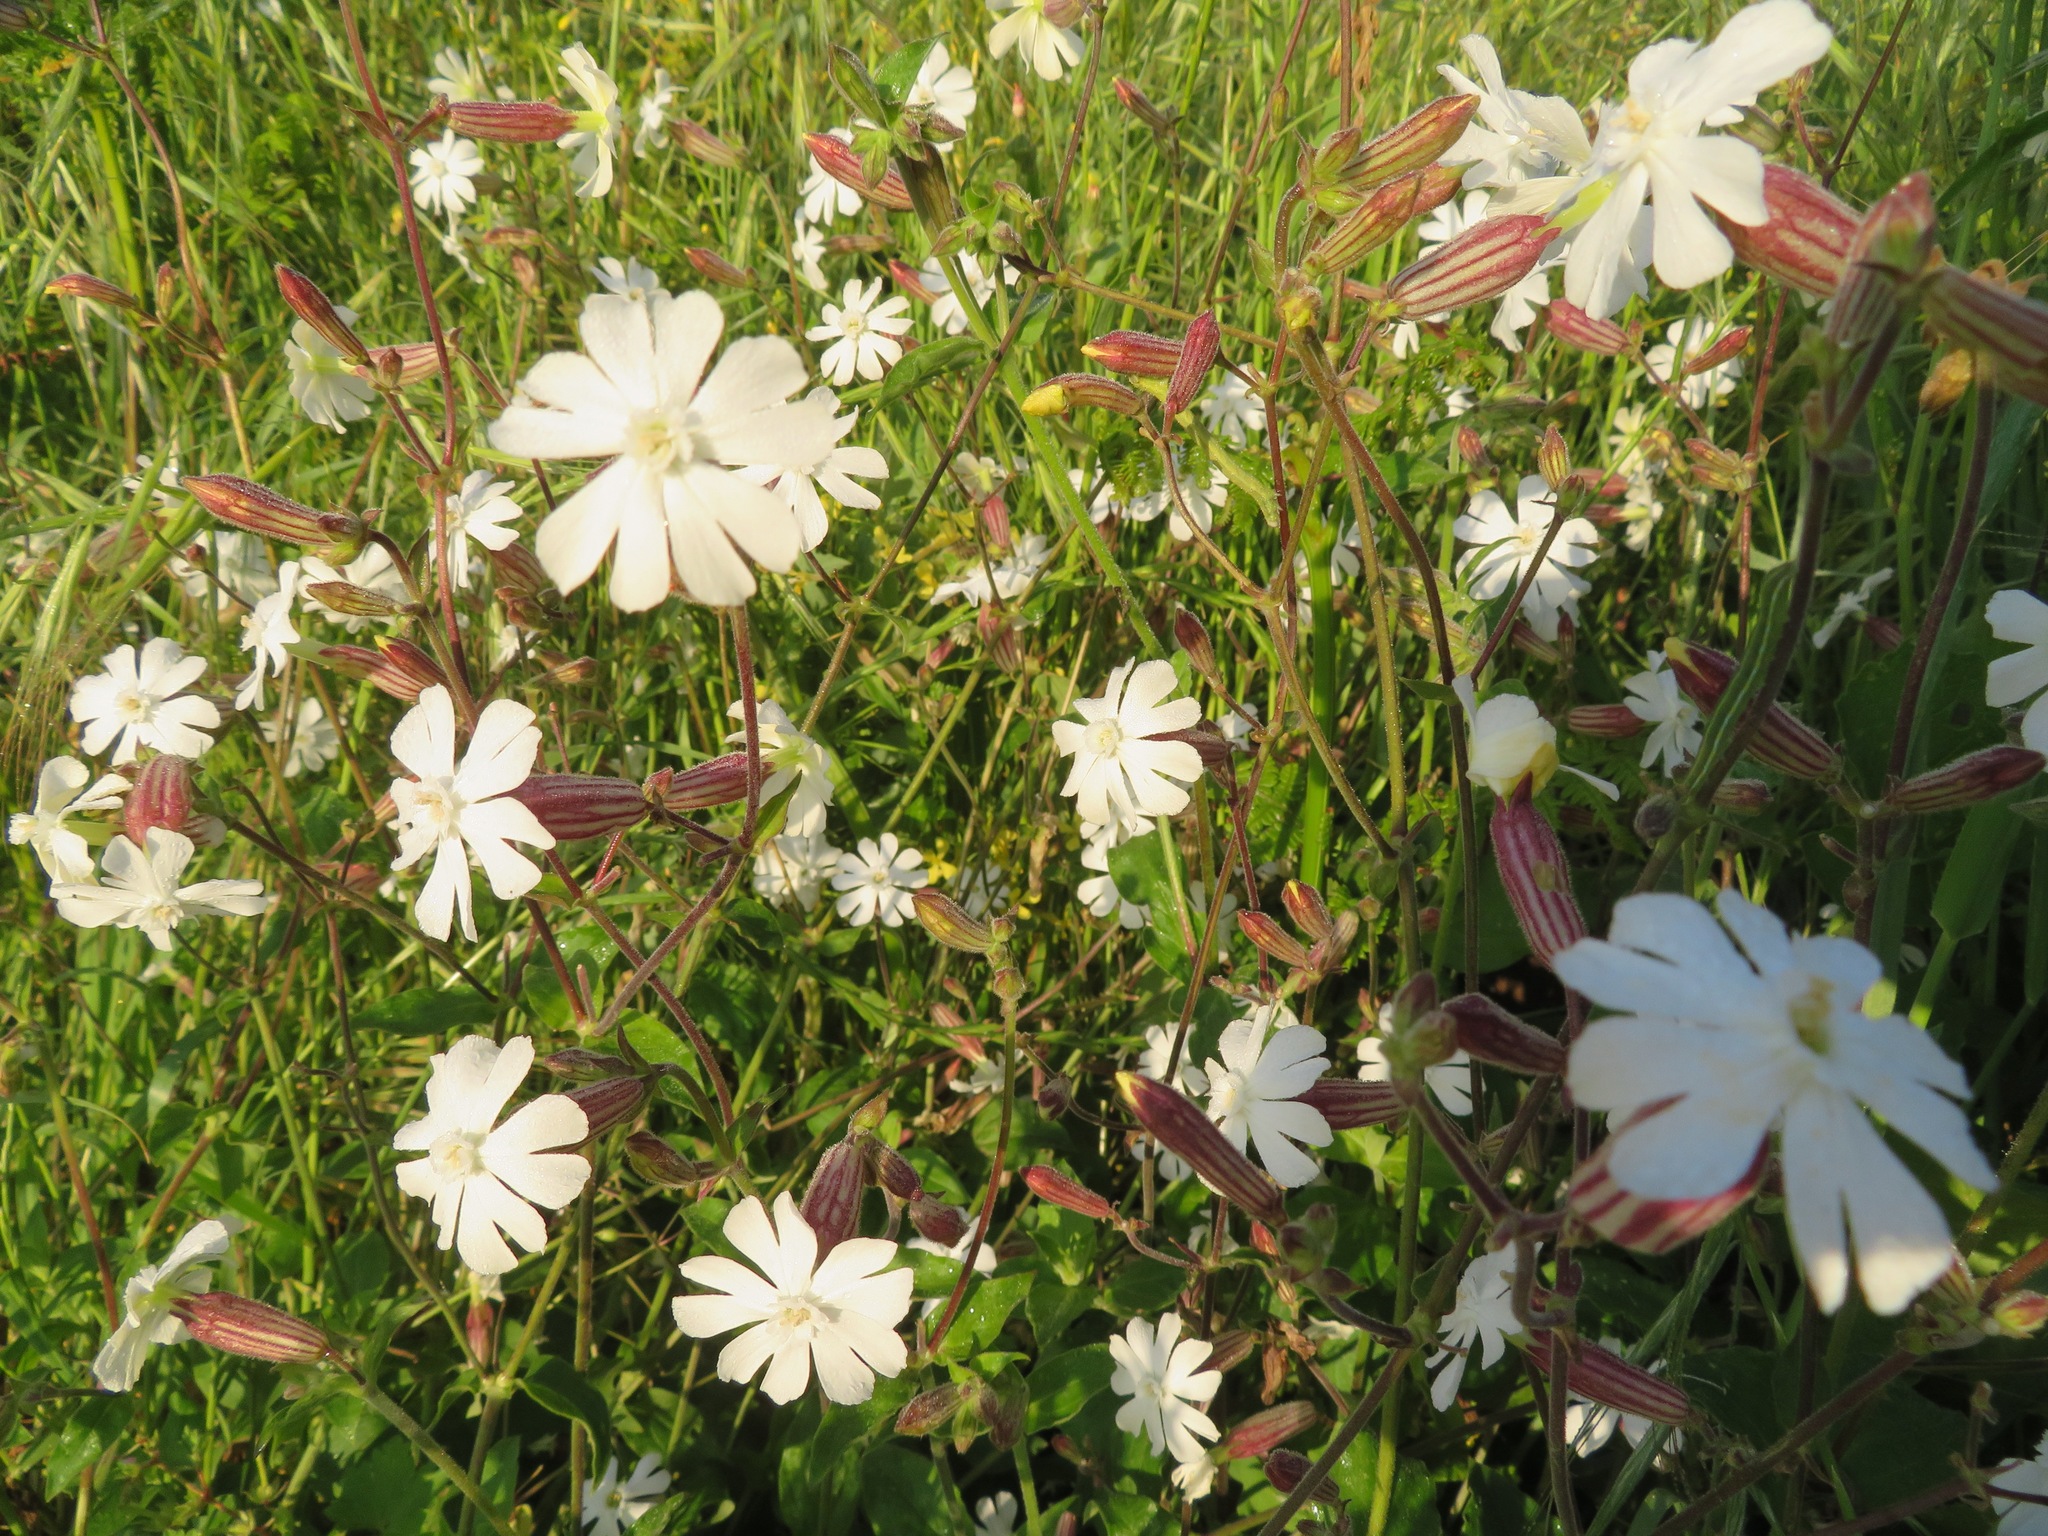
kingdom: Plantae
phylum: Tracheophyta
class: Magnoliopsida
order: Caryophyllales
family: Caryophyllaceae
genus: Silene
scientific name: Silene latifolia
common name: White campion
